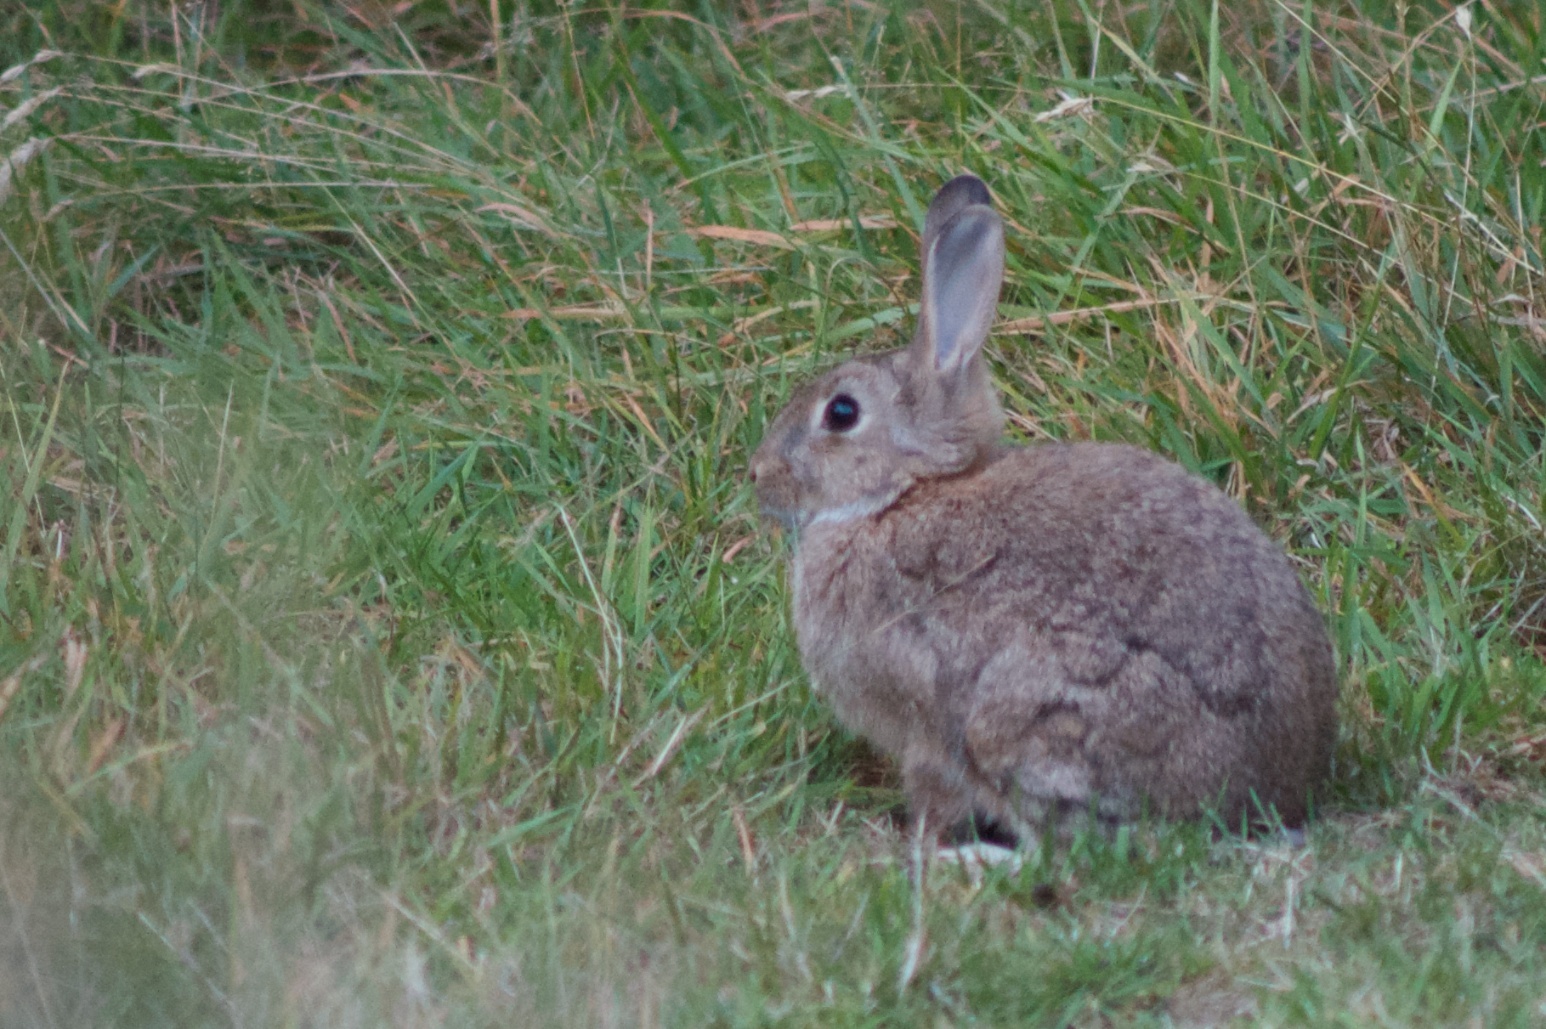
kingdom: Animalia
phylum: Chordata
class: Mammalia
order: Lagomorpha
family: Leporidae
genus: Oryctolagus
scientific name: Oryctolagus cuniculus
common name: European rabbit
